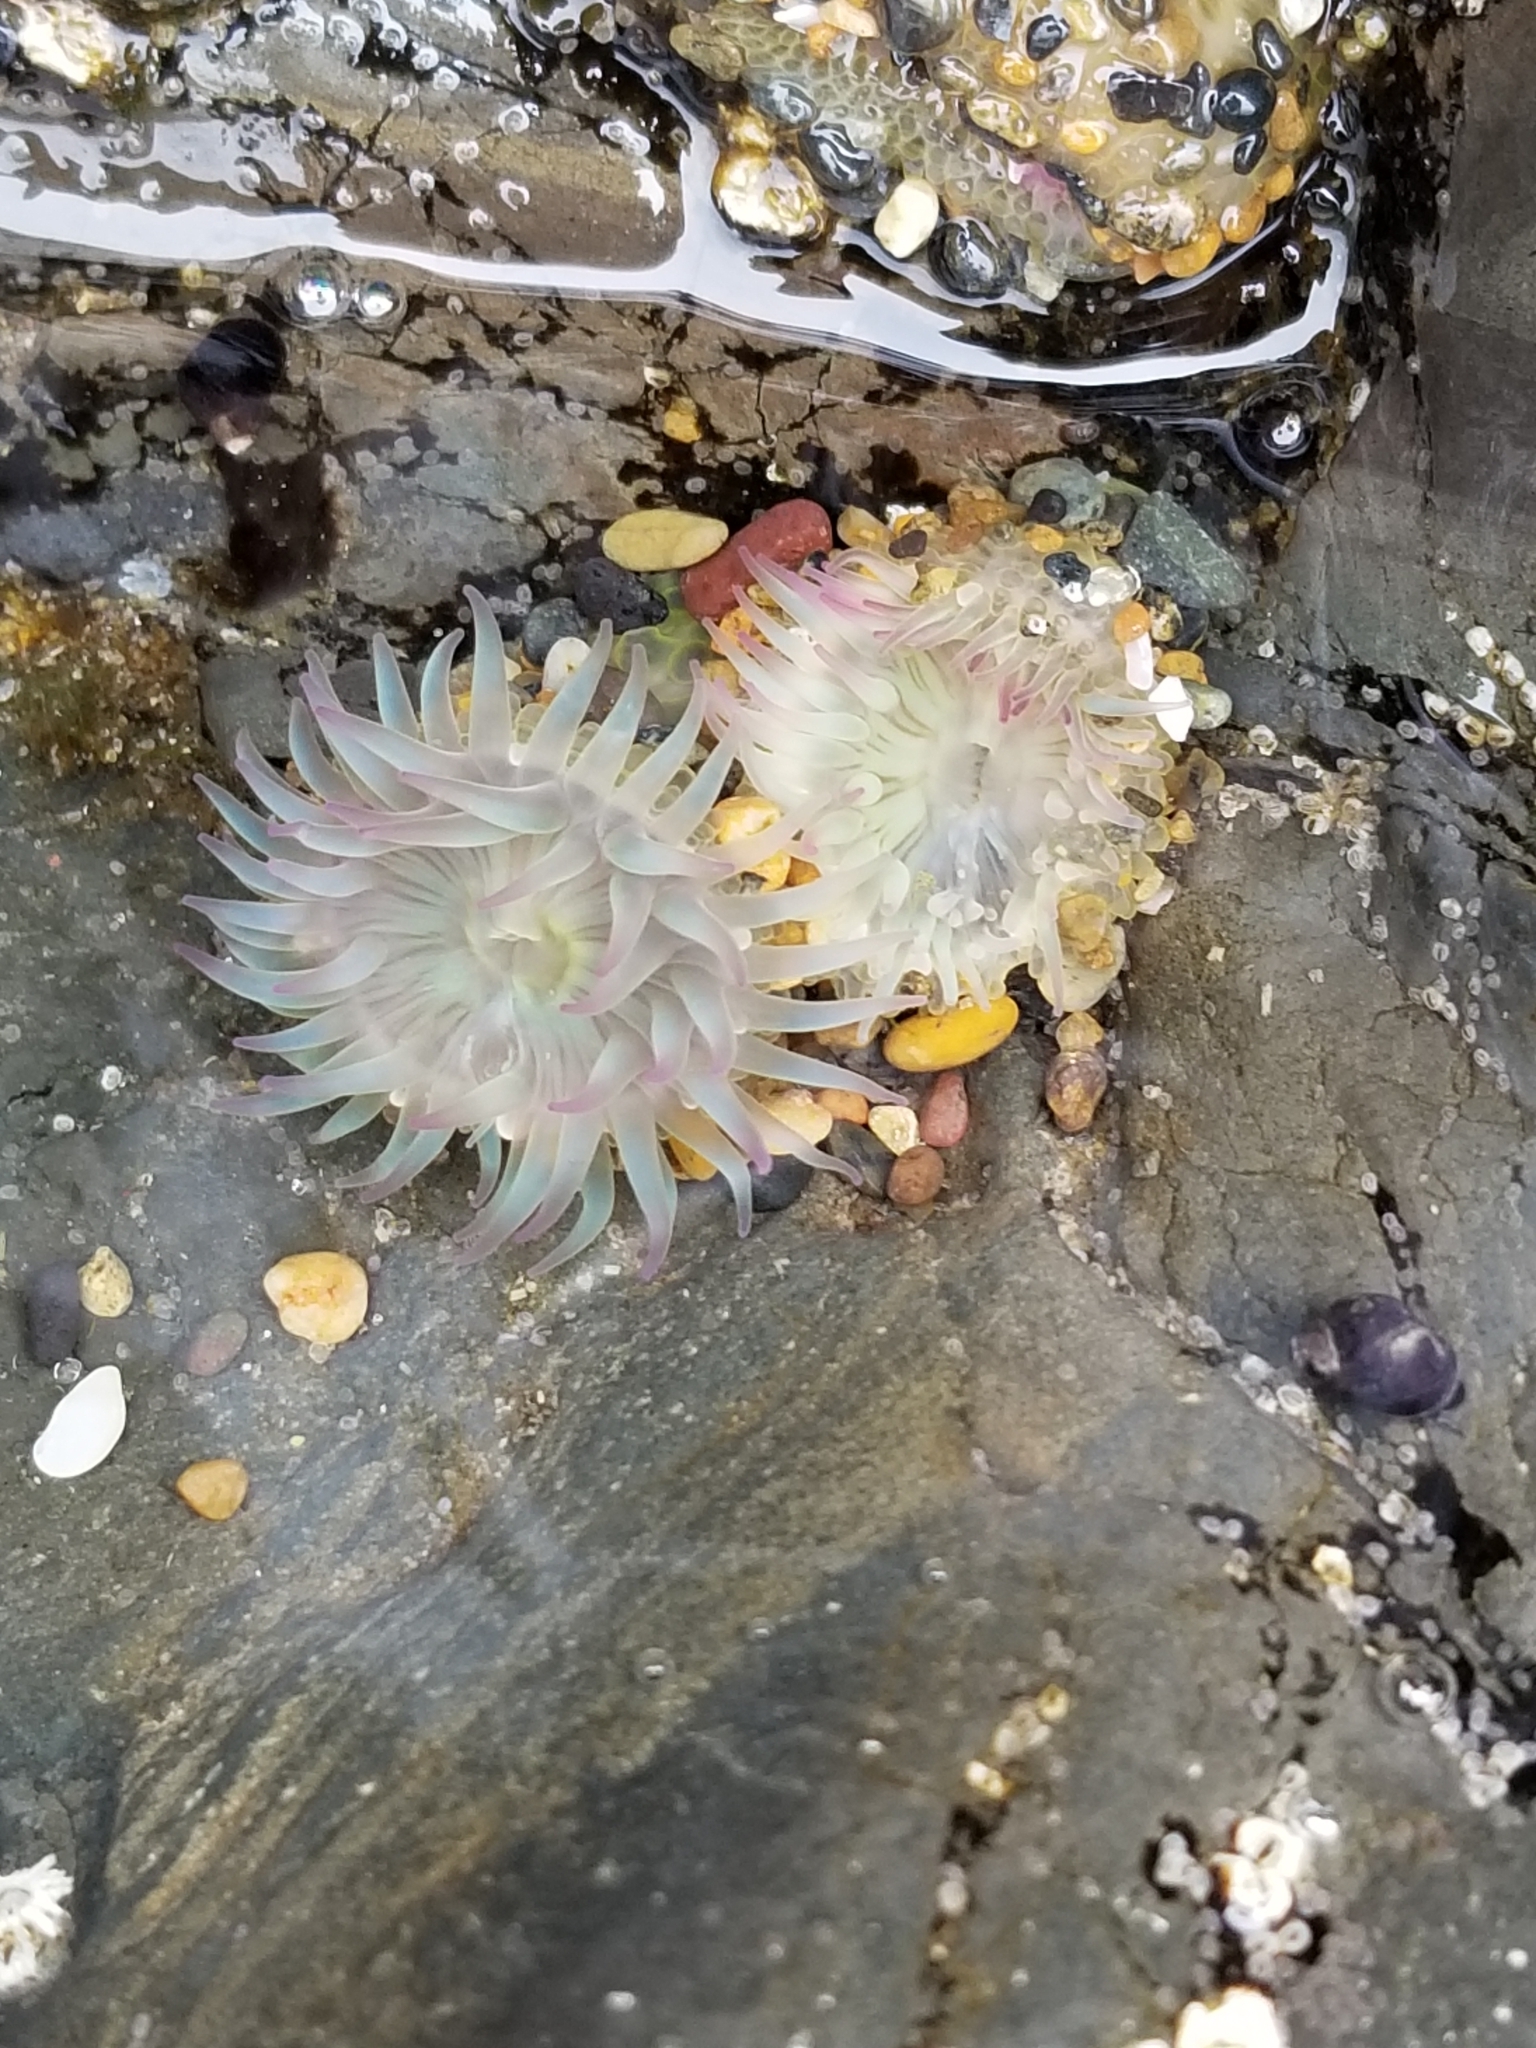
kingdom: Animalia
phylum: Cnidaria
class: Anthozoa
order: Actiniaria
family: Actiniidae
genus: Anthopleura
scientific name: Anthopleura elegantissima
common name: Clonal anemone
